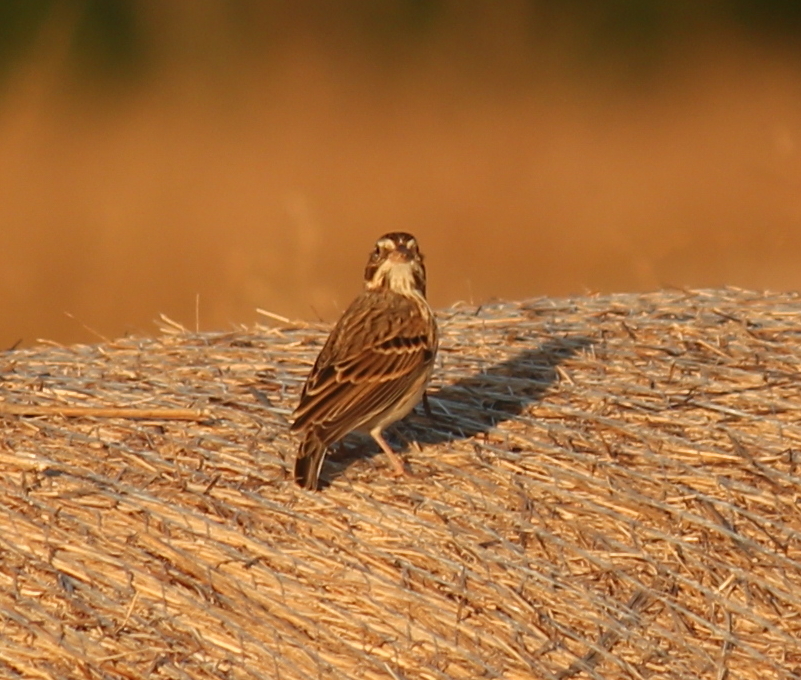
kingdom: Animalia
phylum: Chordata
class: Aves
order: Passeriformes
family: Passerellidae
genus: Pooecetes
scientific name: Pooecetes gramineus
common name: Vesper sparrow
